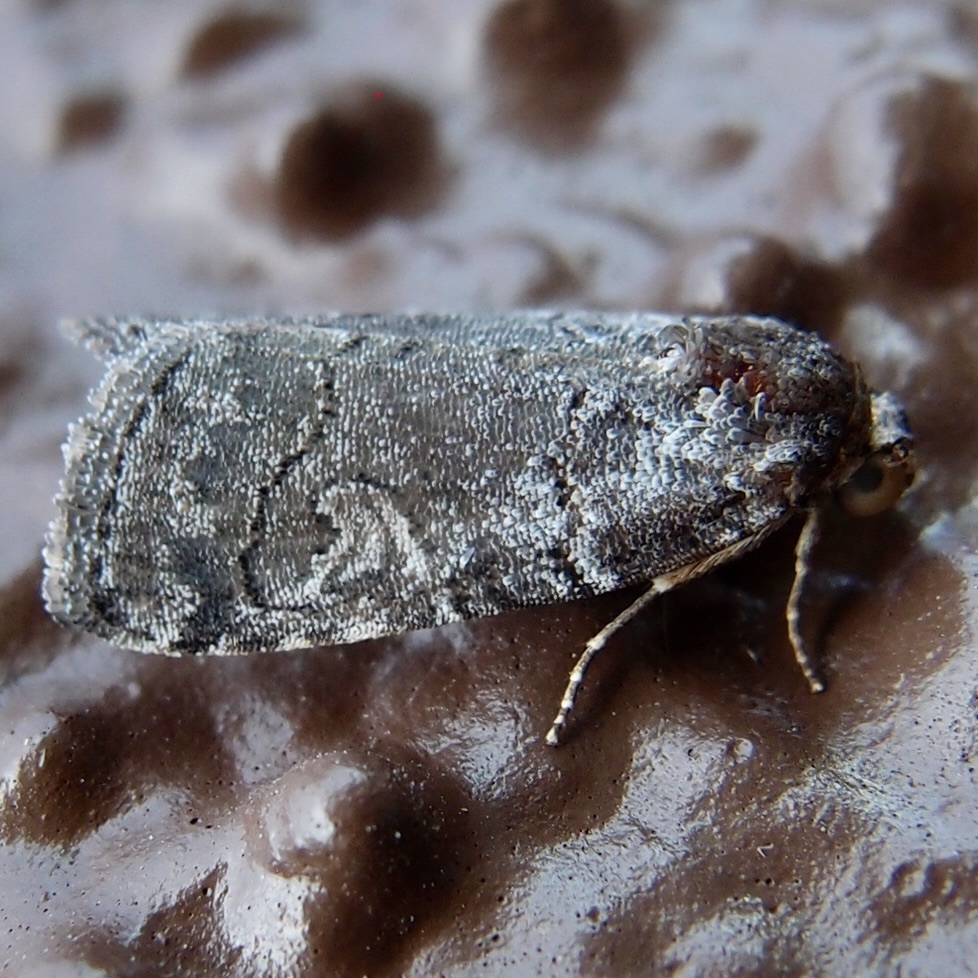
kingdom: Animalia
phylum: Arthropoda
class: Insecta
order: Lepidoptera
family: Noctuidae
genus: Metaponpneumata
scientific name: Metaponpneumata rogenhoferi
